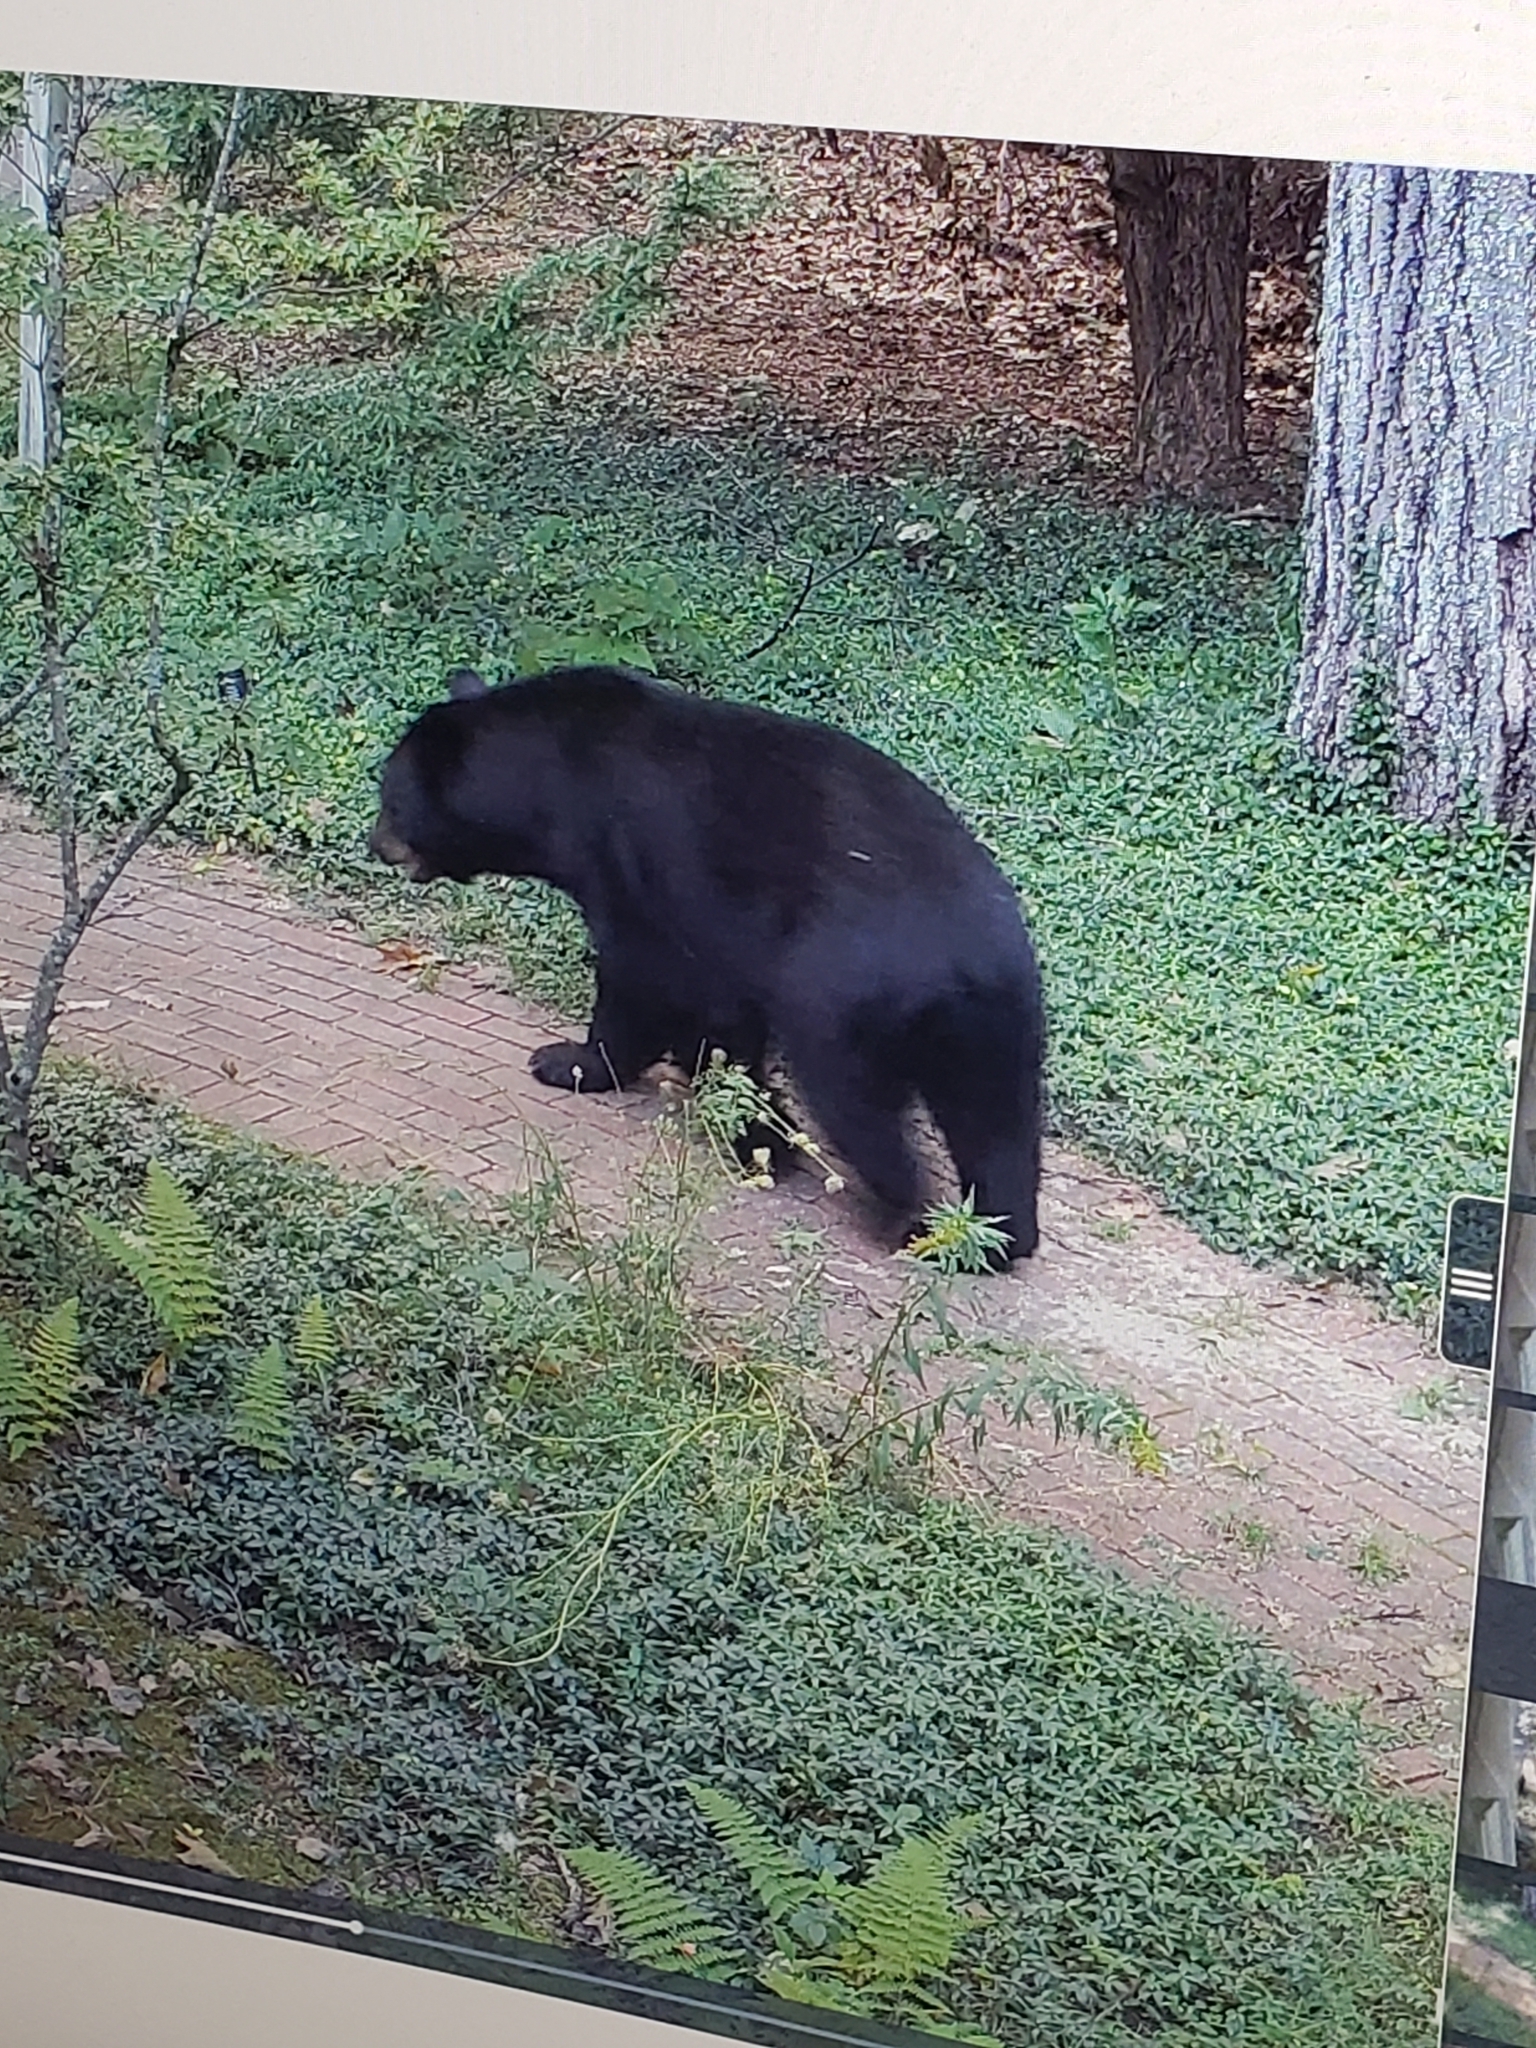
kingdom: Animalia
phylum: Chordata
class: Mammalia
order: Carnivora
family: Ursidae
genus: Ursus
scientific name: Ursus americanus
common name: American black bear
